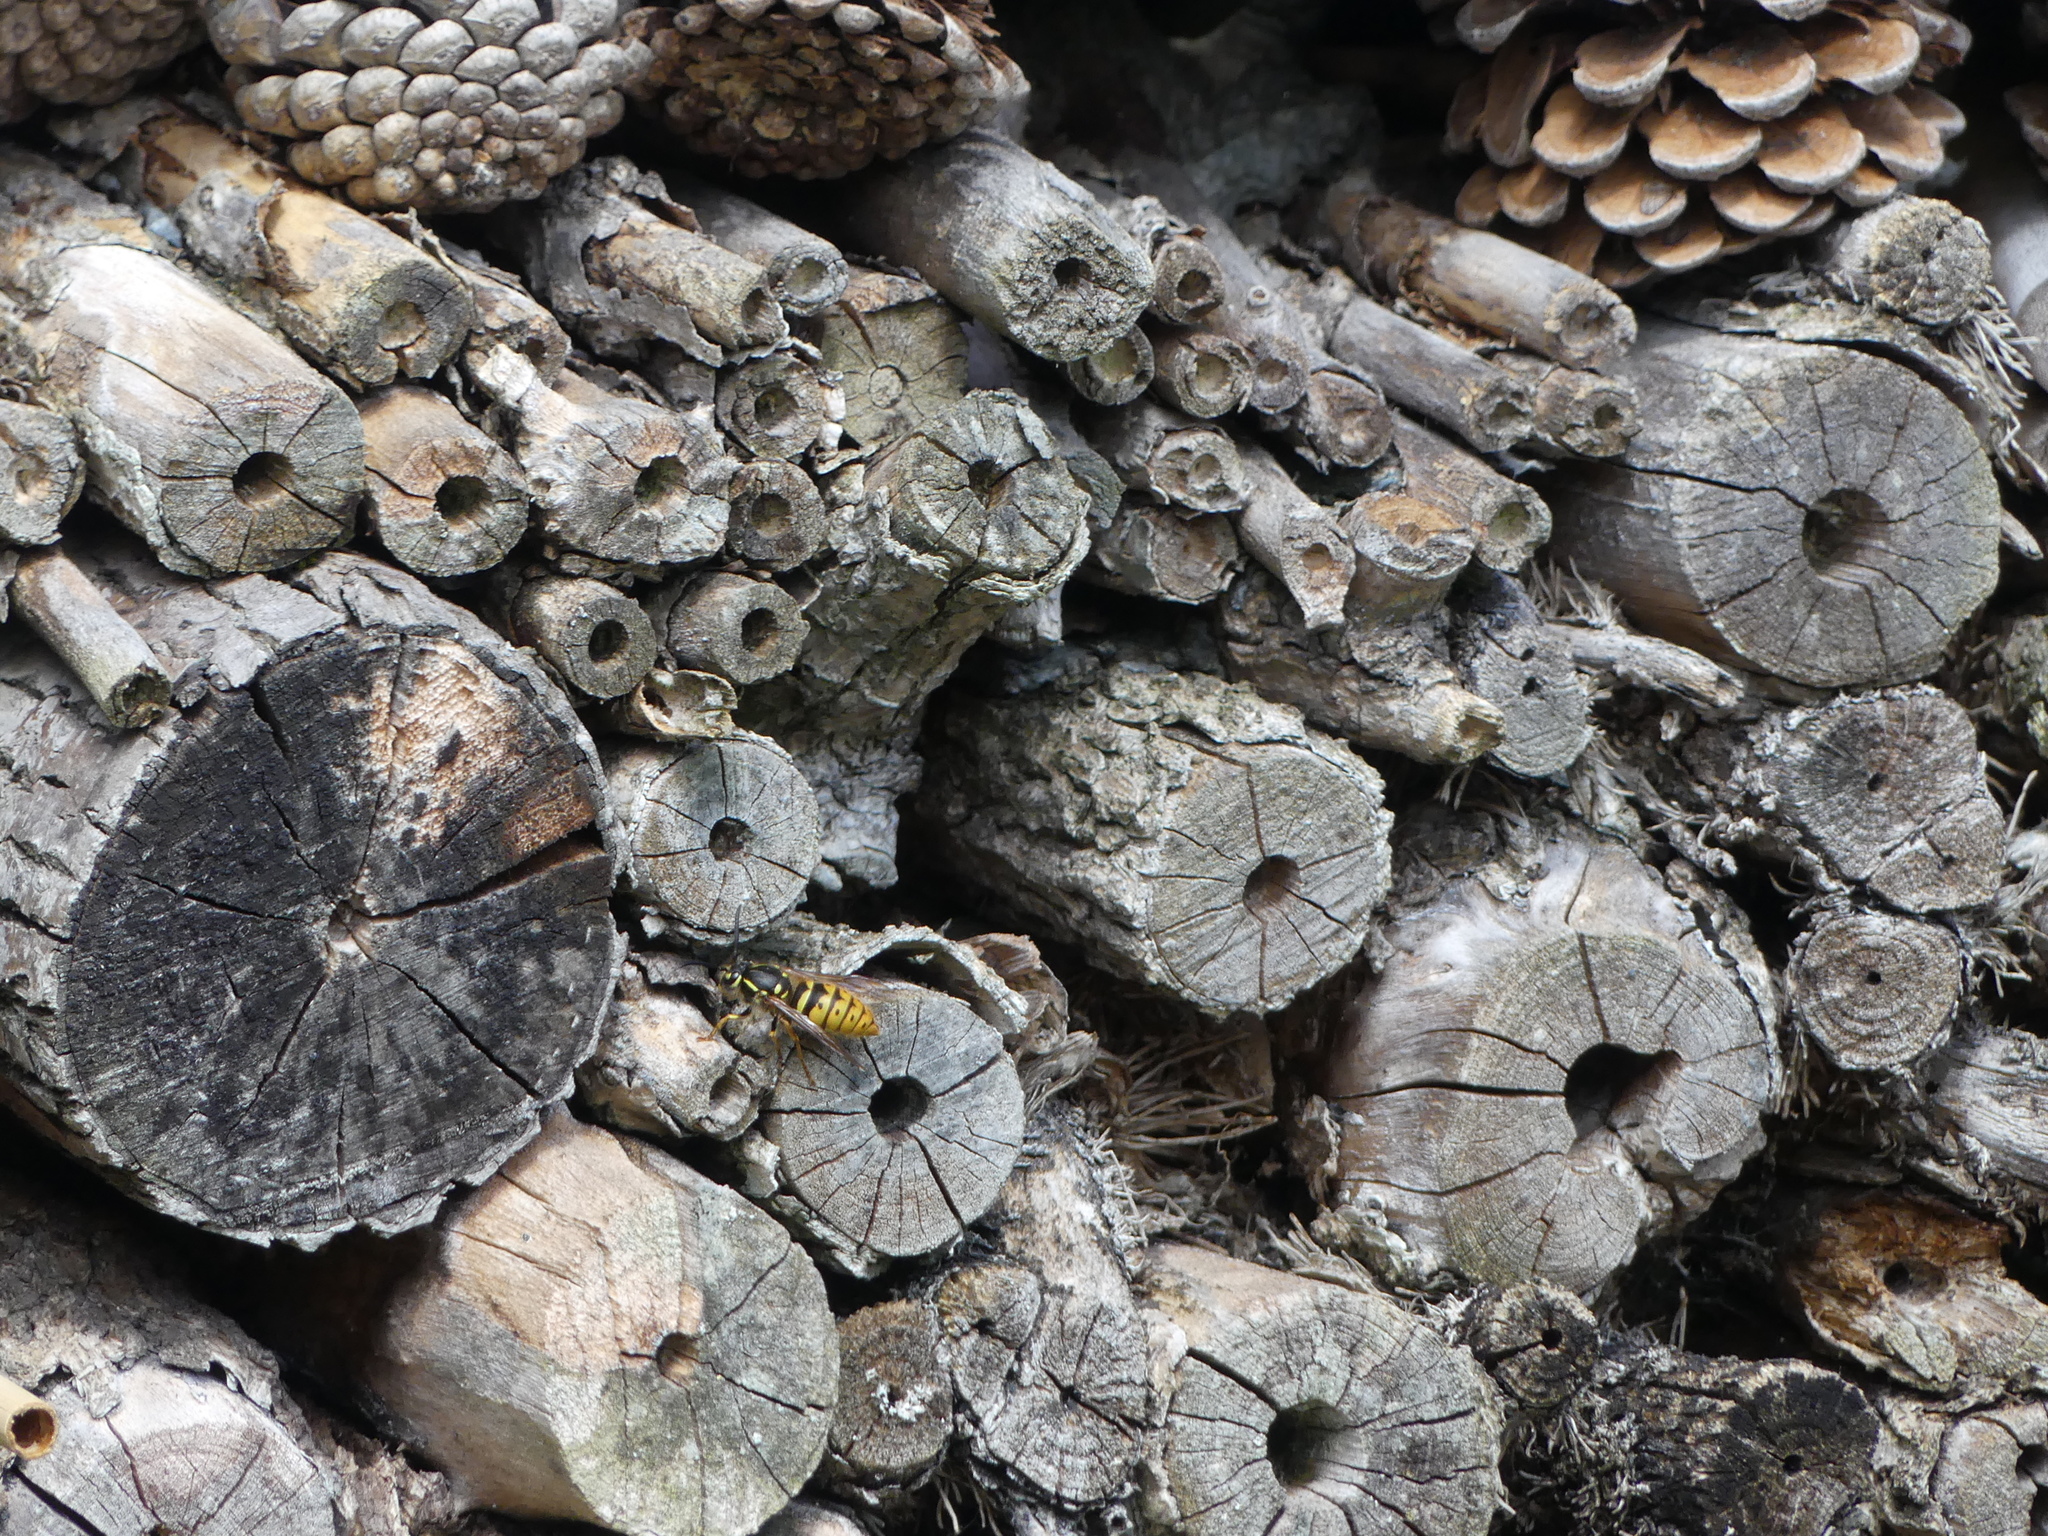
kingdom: Animalia
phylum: Arthropoda
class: Insecta
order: Hymenoptera
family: Vespidae
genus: Vespula
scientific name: Vespula vulgaris
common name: Common wasp
